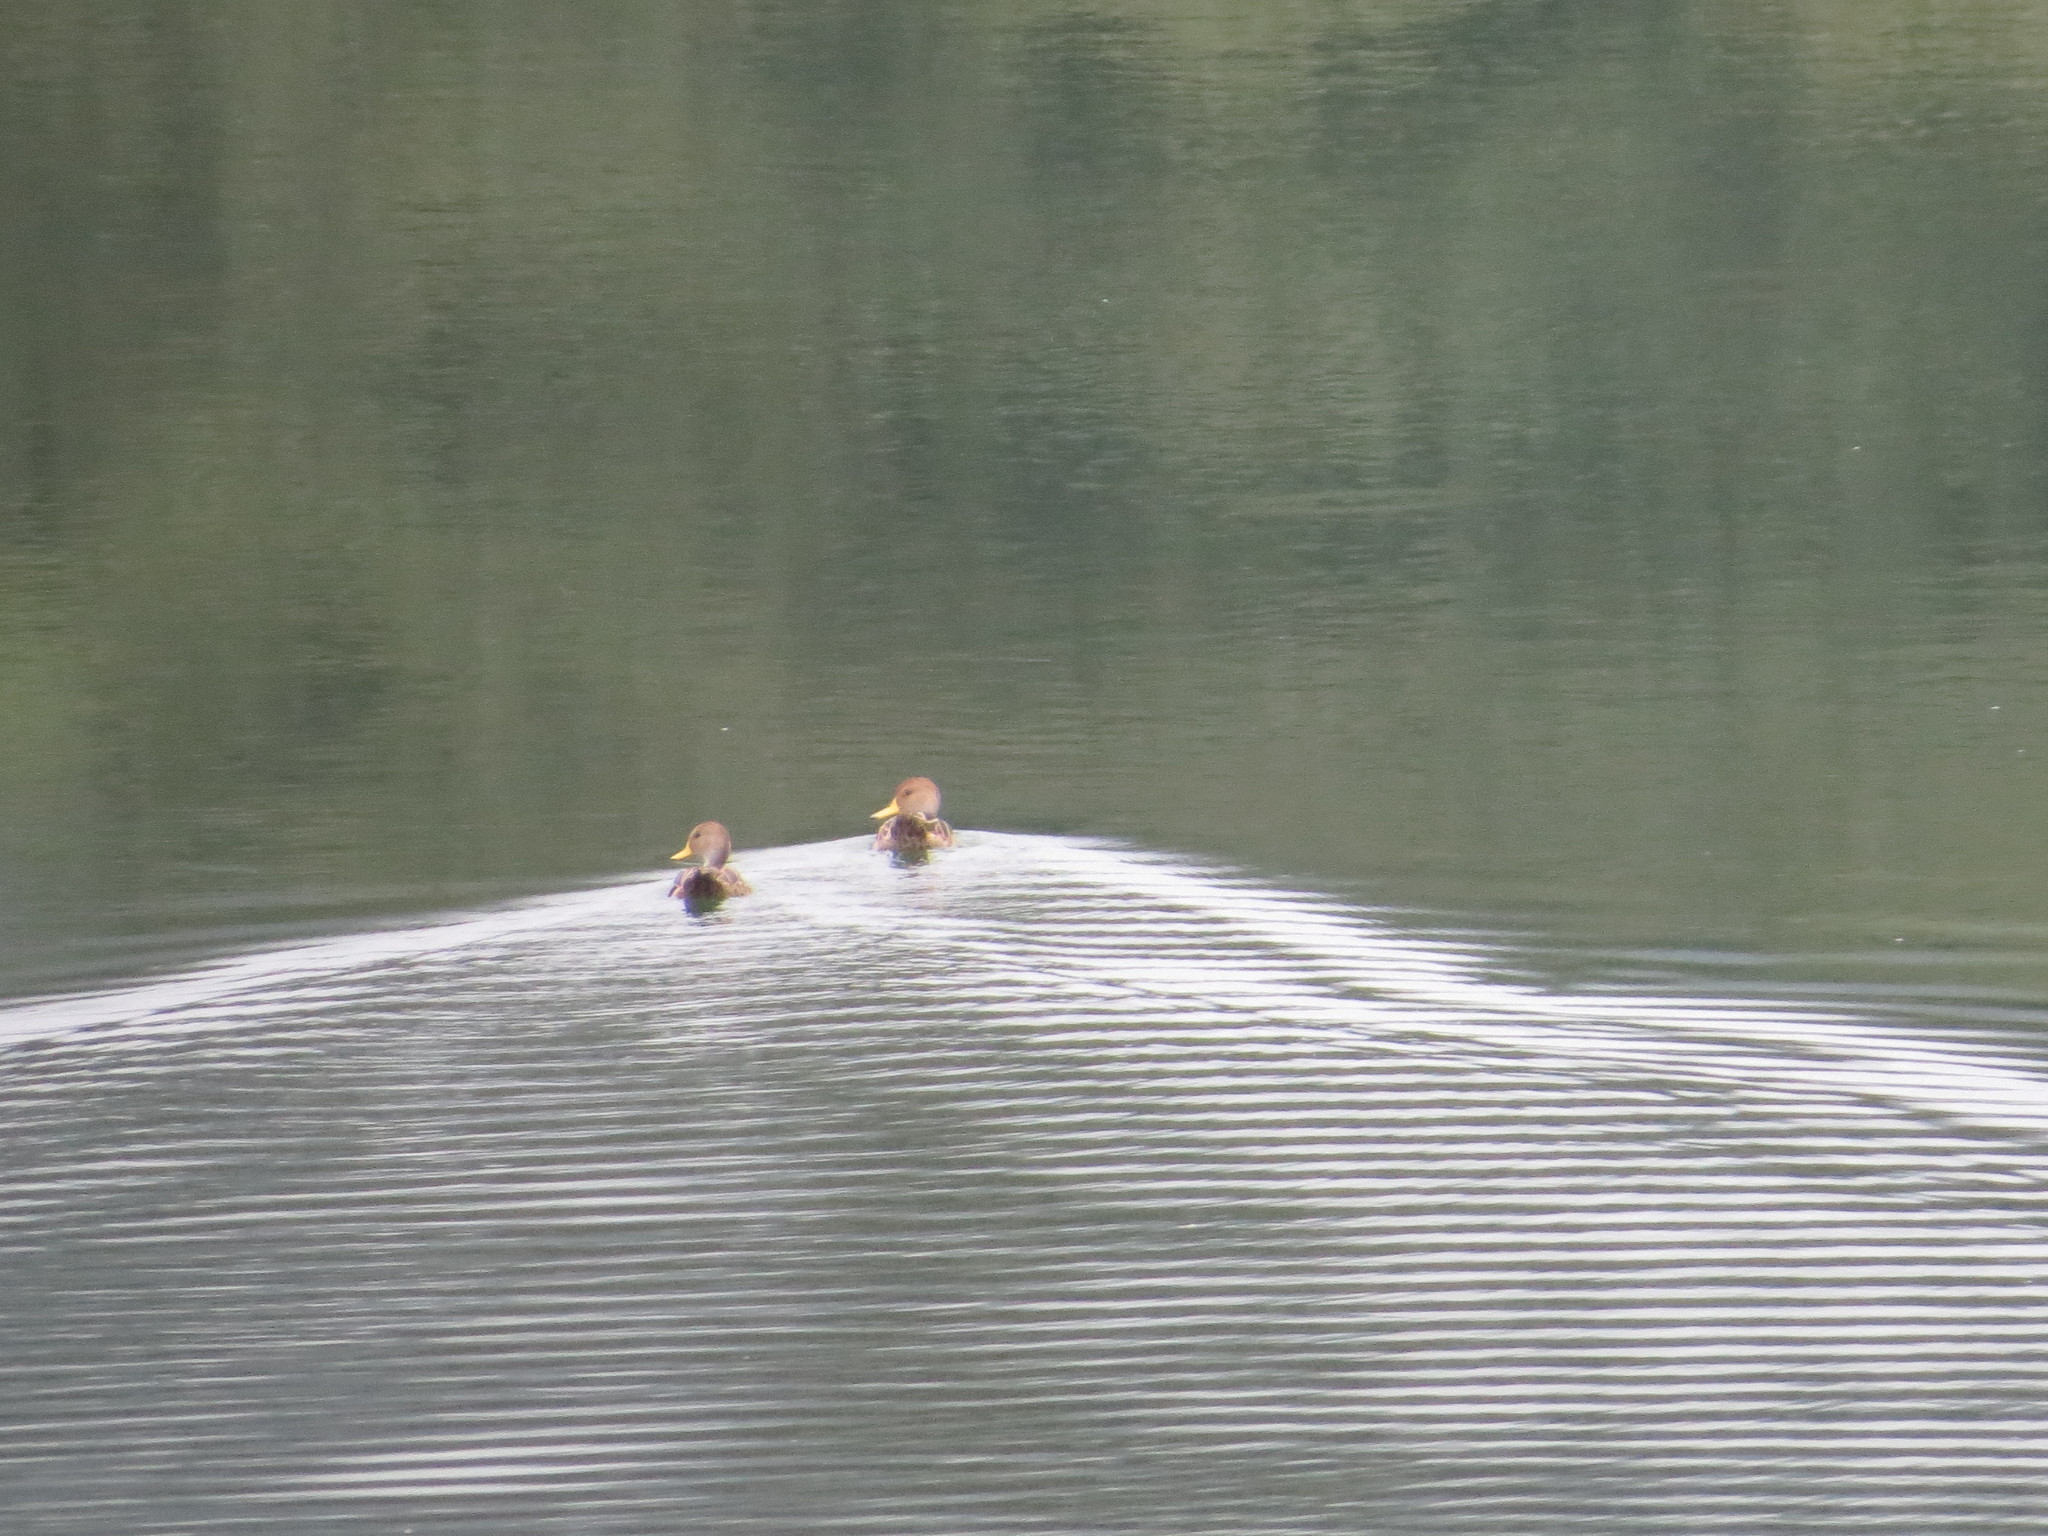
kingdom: Animalia
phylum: Chordata
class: Aves
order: Anseriformes
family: Anatidae
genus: Anas
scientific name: Anas georgica
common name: Yellow-billed pintail
